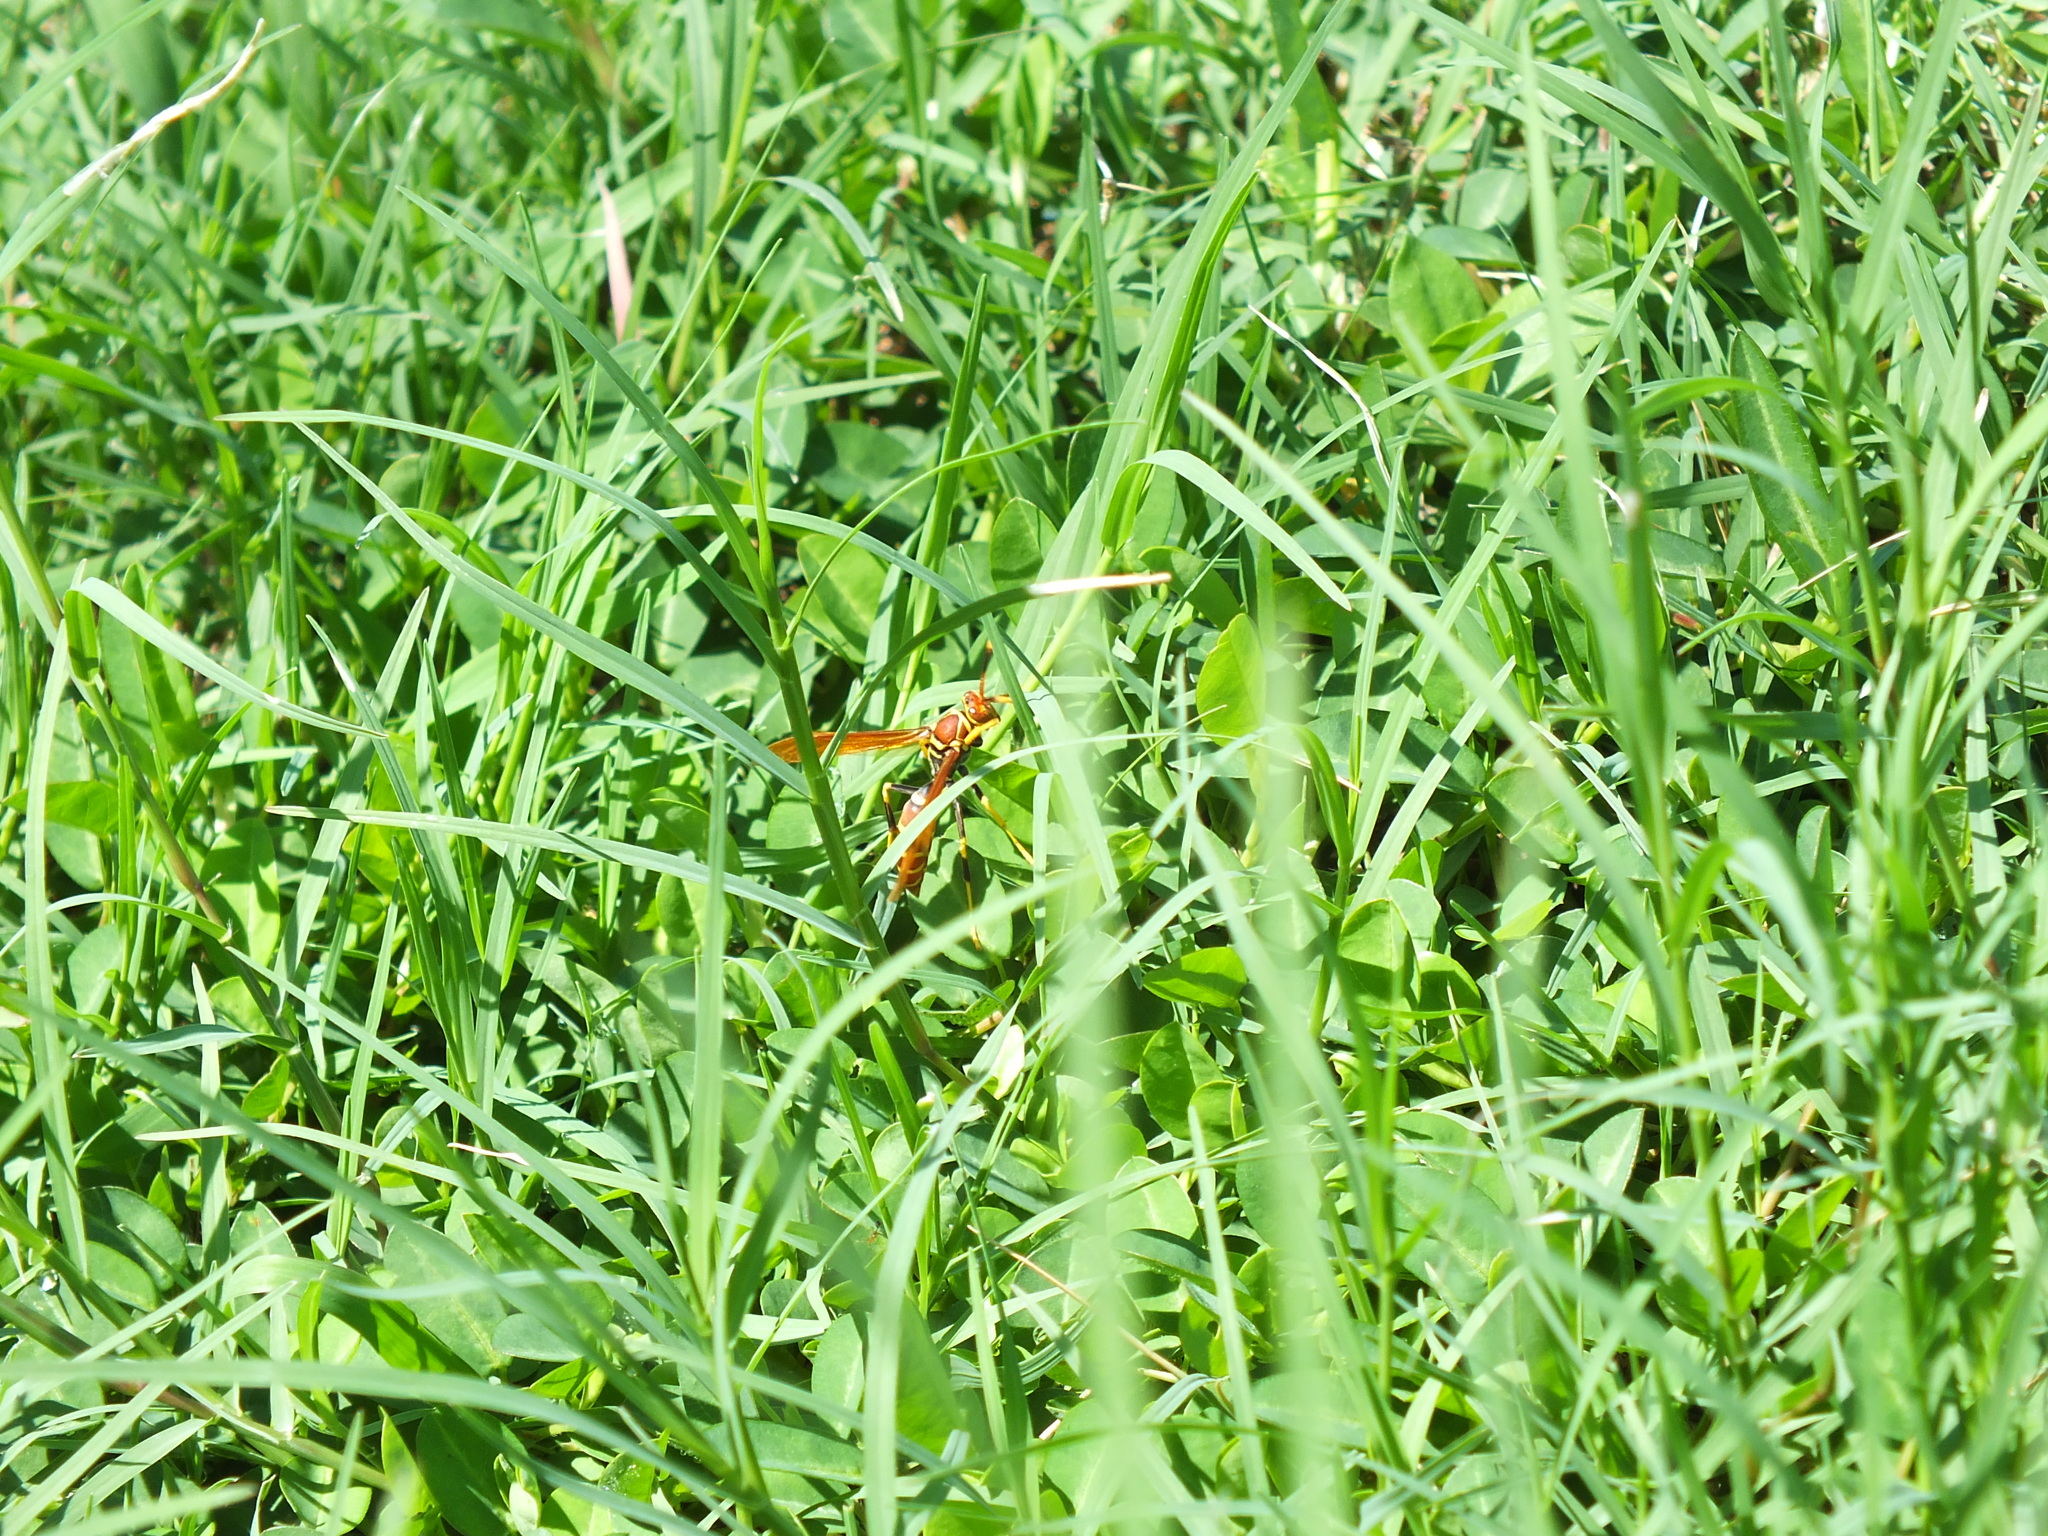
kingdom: Animalia
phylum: Arthropoda
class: Insecta
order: Hymenoptera
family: Eumenidae
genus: Polistes
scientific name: Polistes crinitus
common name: Jack spaniard
